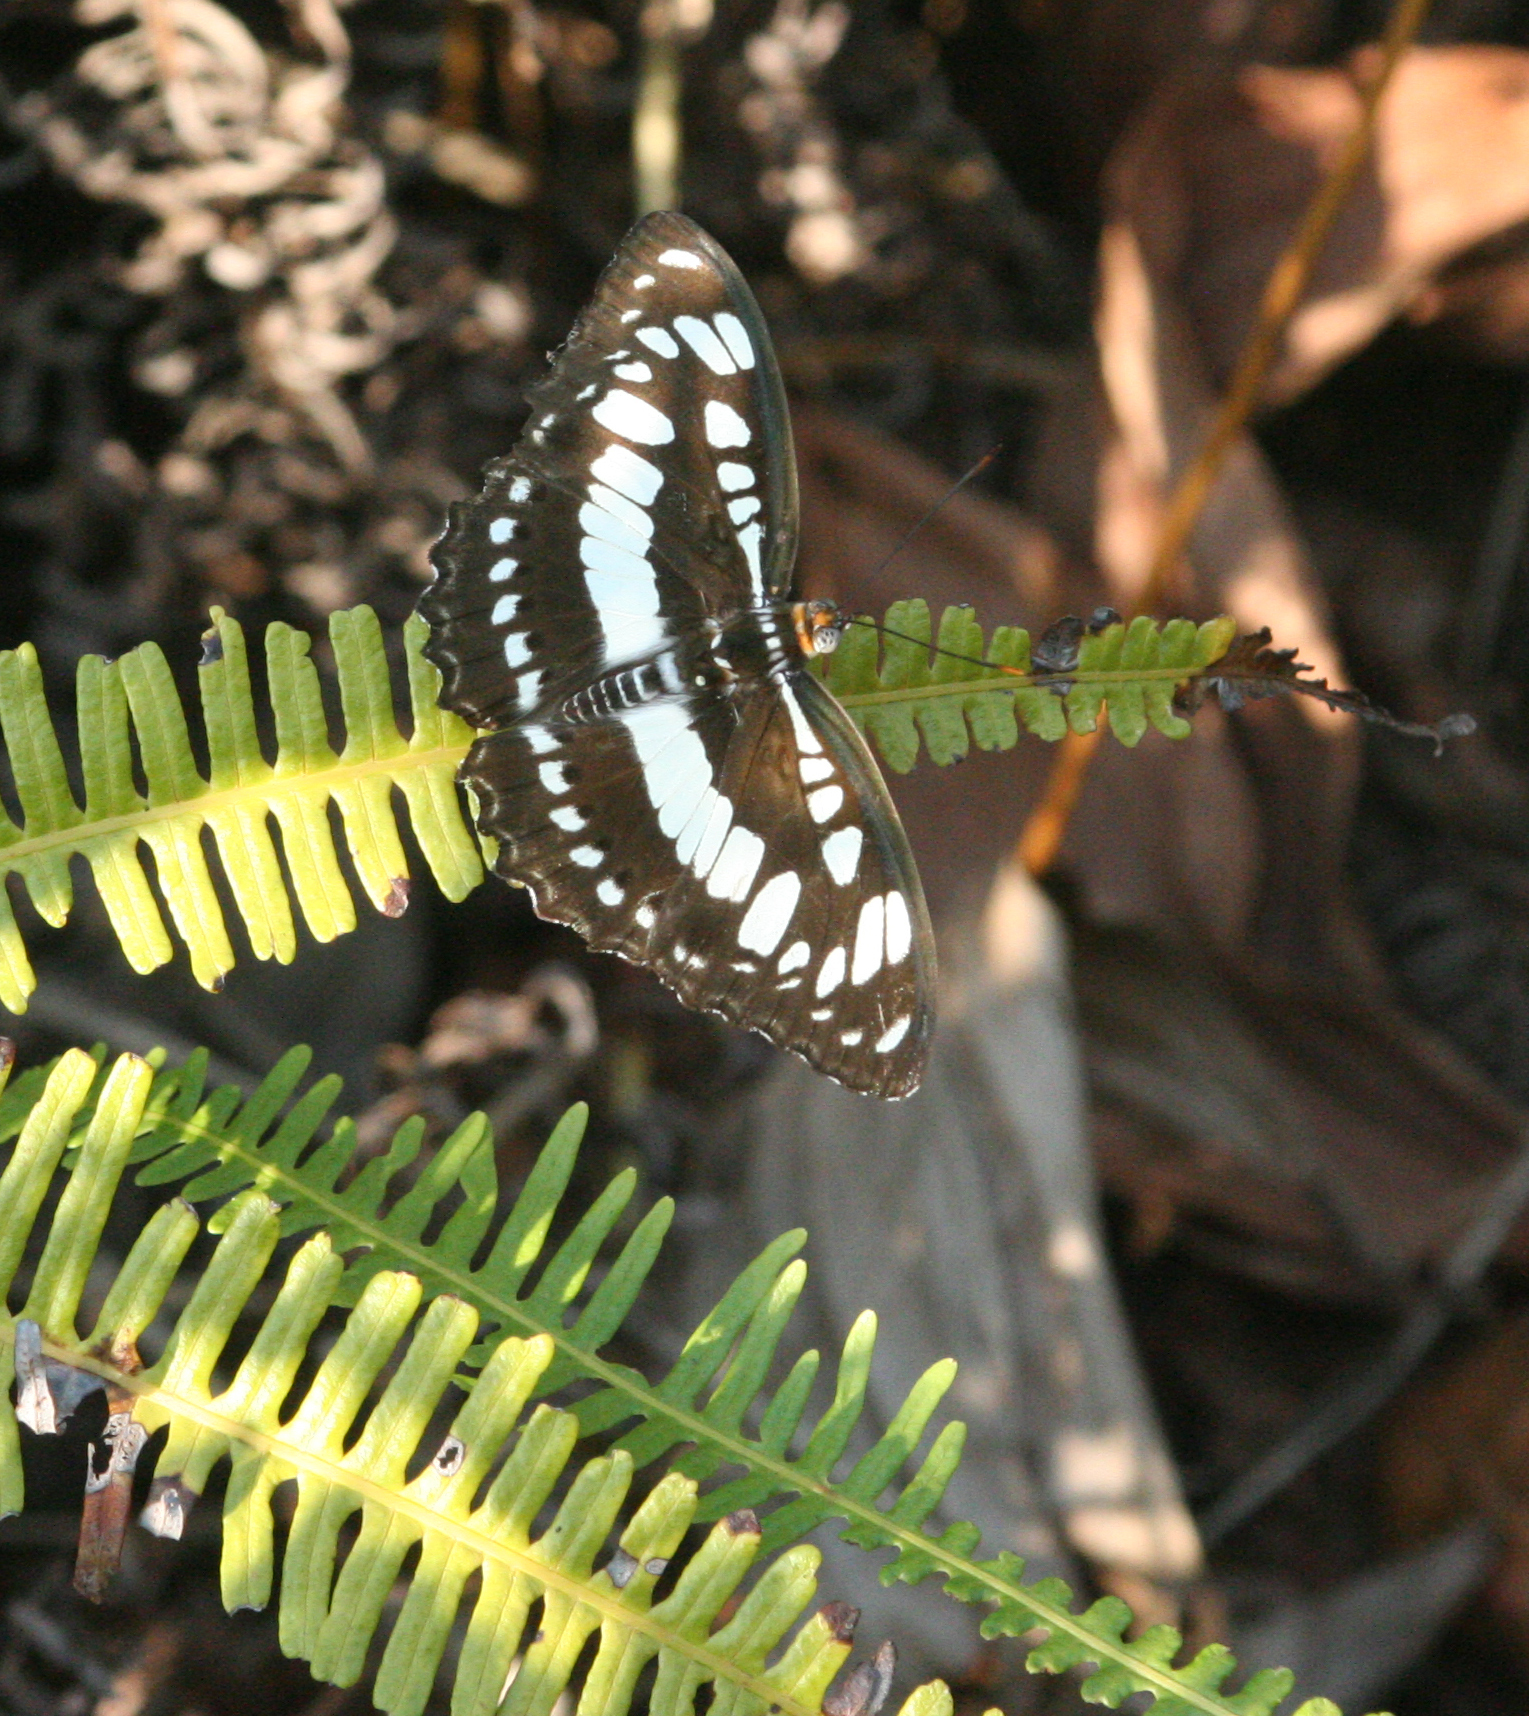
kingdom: Animalia
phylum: Arthropoda
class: Insecta
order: Lepidoptera
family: Nymphalidae
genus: Parathyma
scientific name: Parathyma perius
